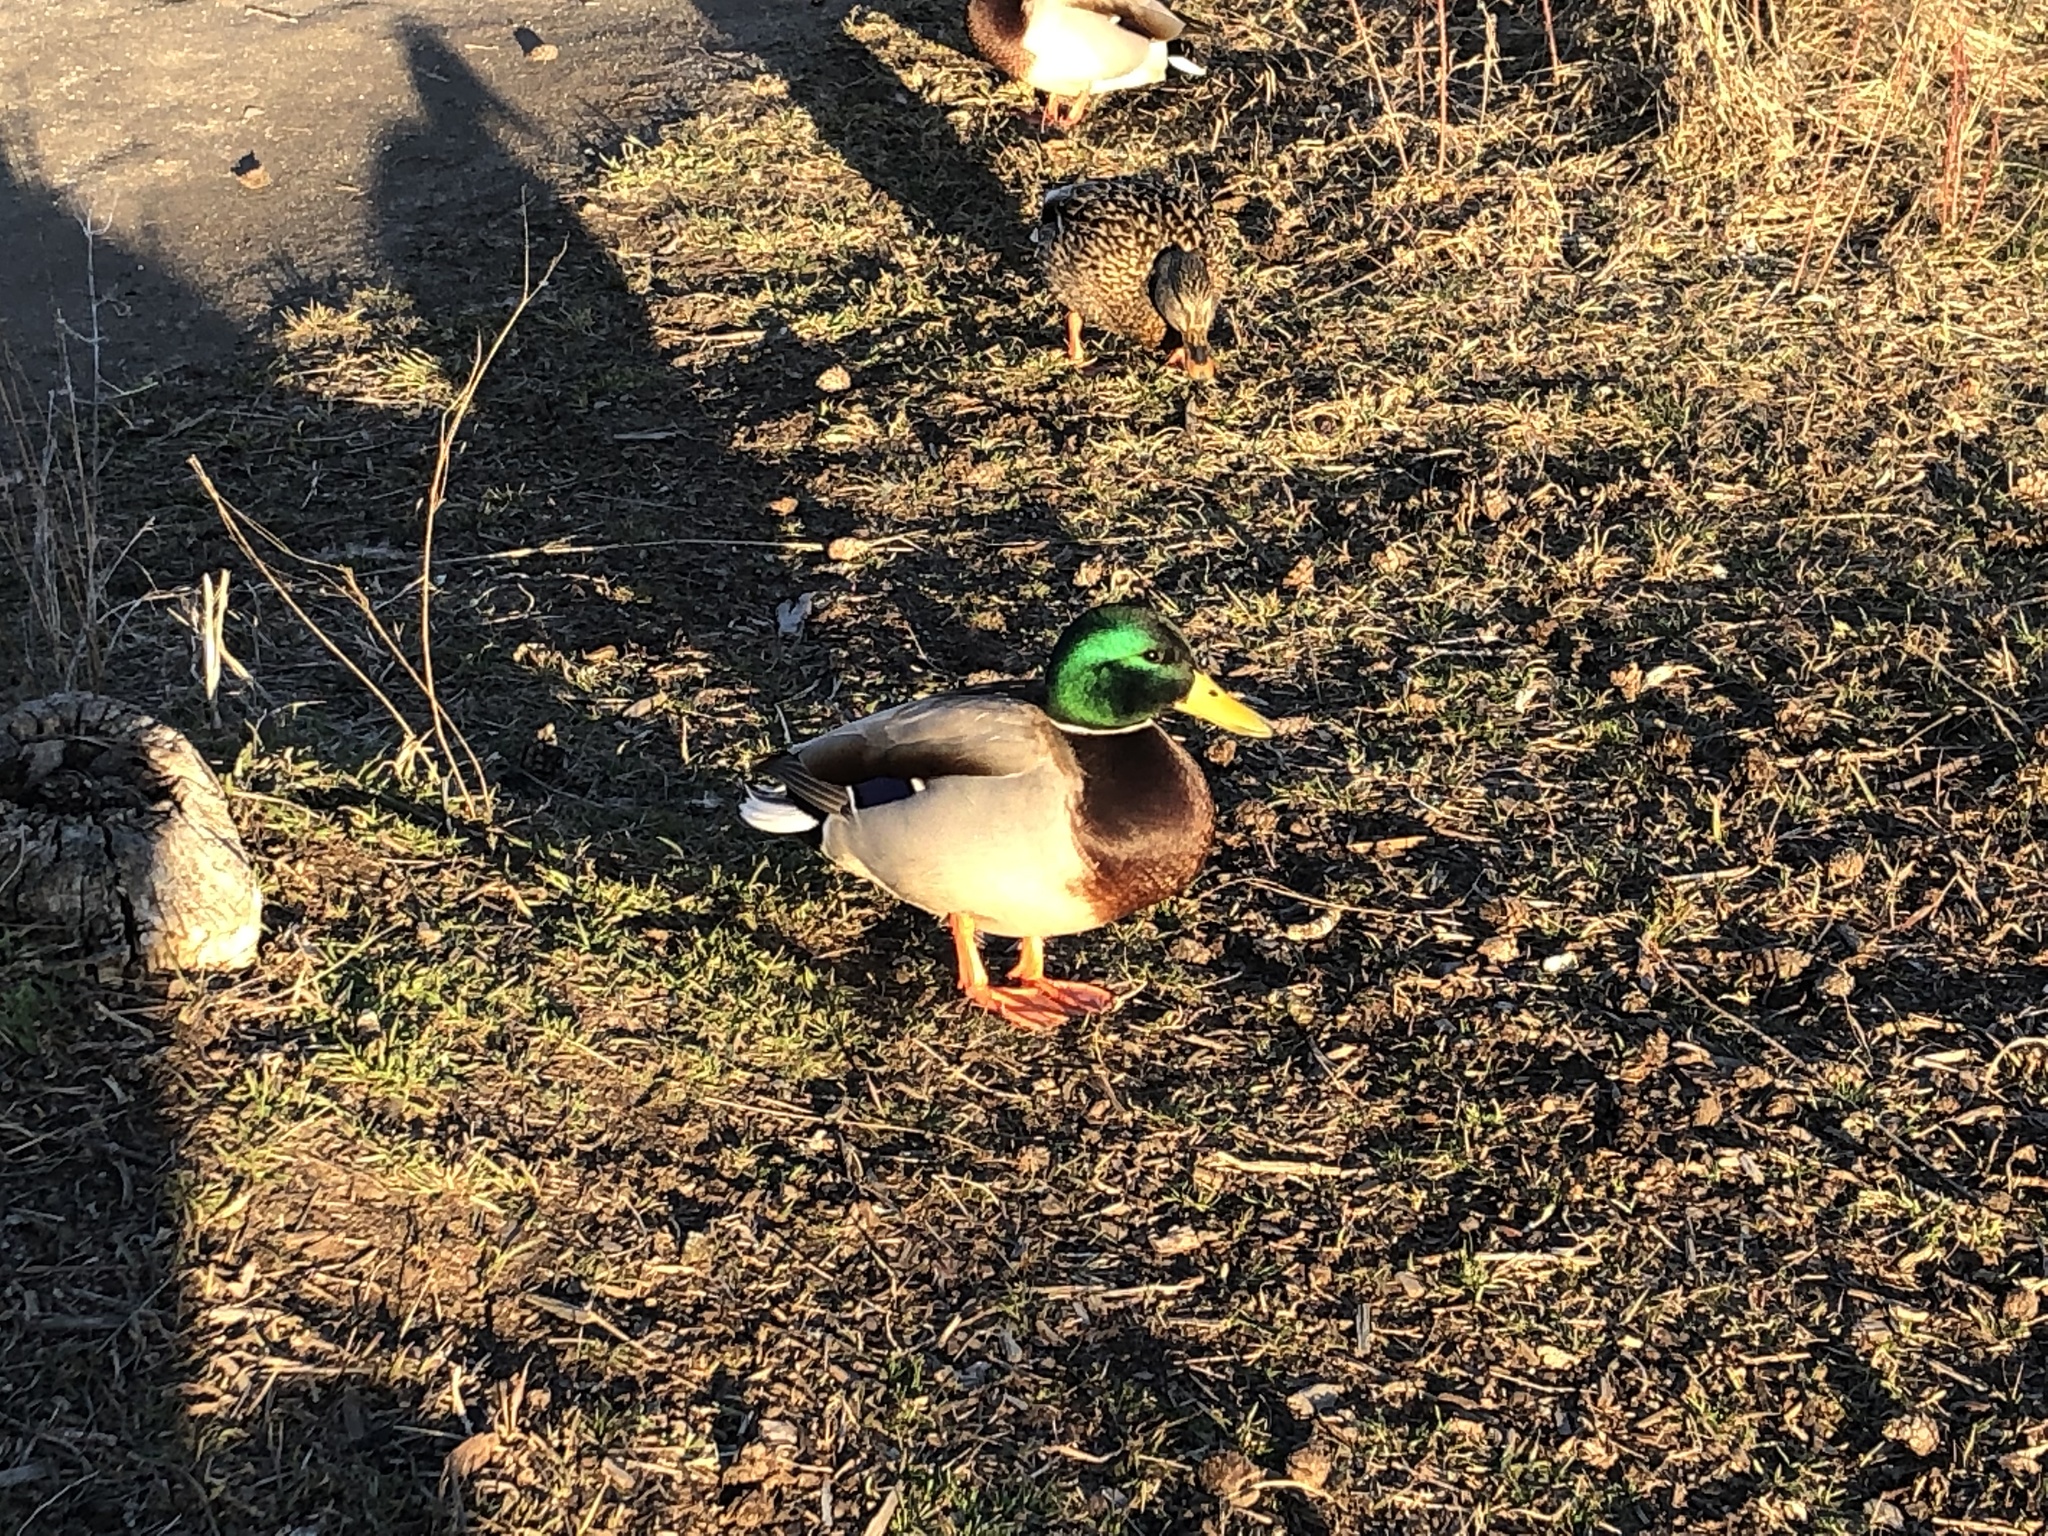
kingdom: Animalia
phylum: Chordata
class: Aves
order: Anseriformes
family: Anatidae
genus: Anas
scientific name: Anas platyrhynchos
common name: Mallard
